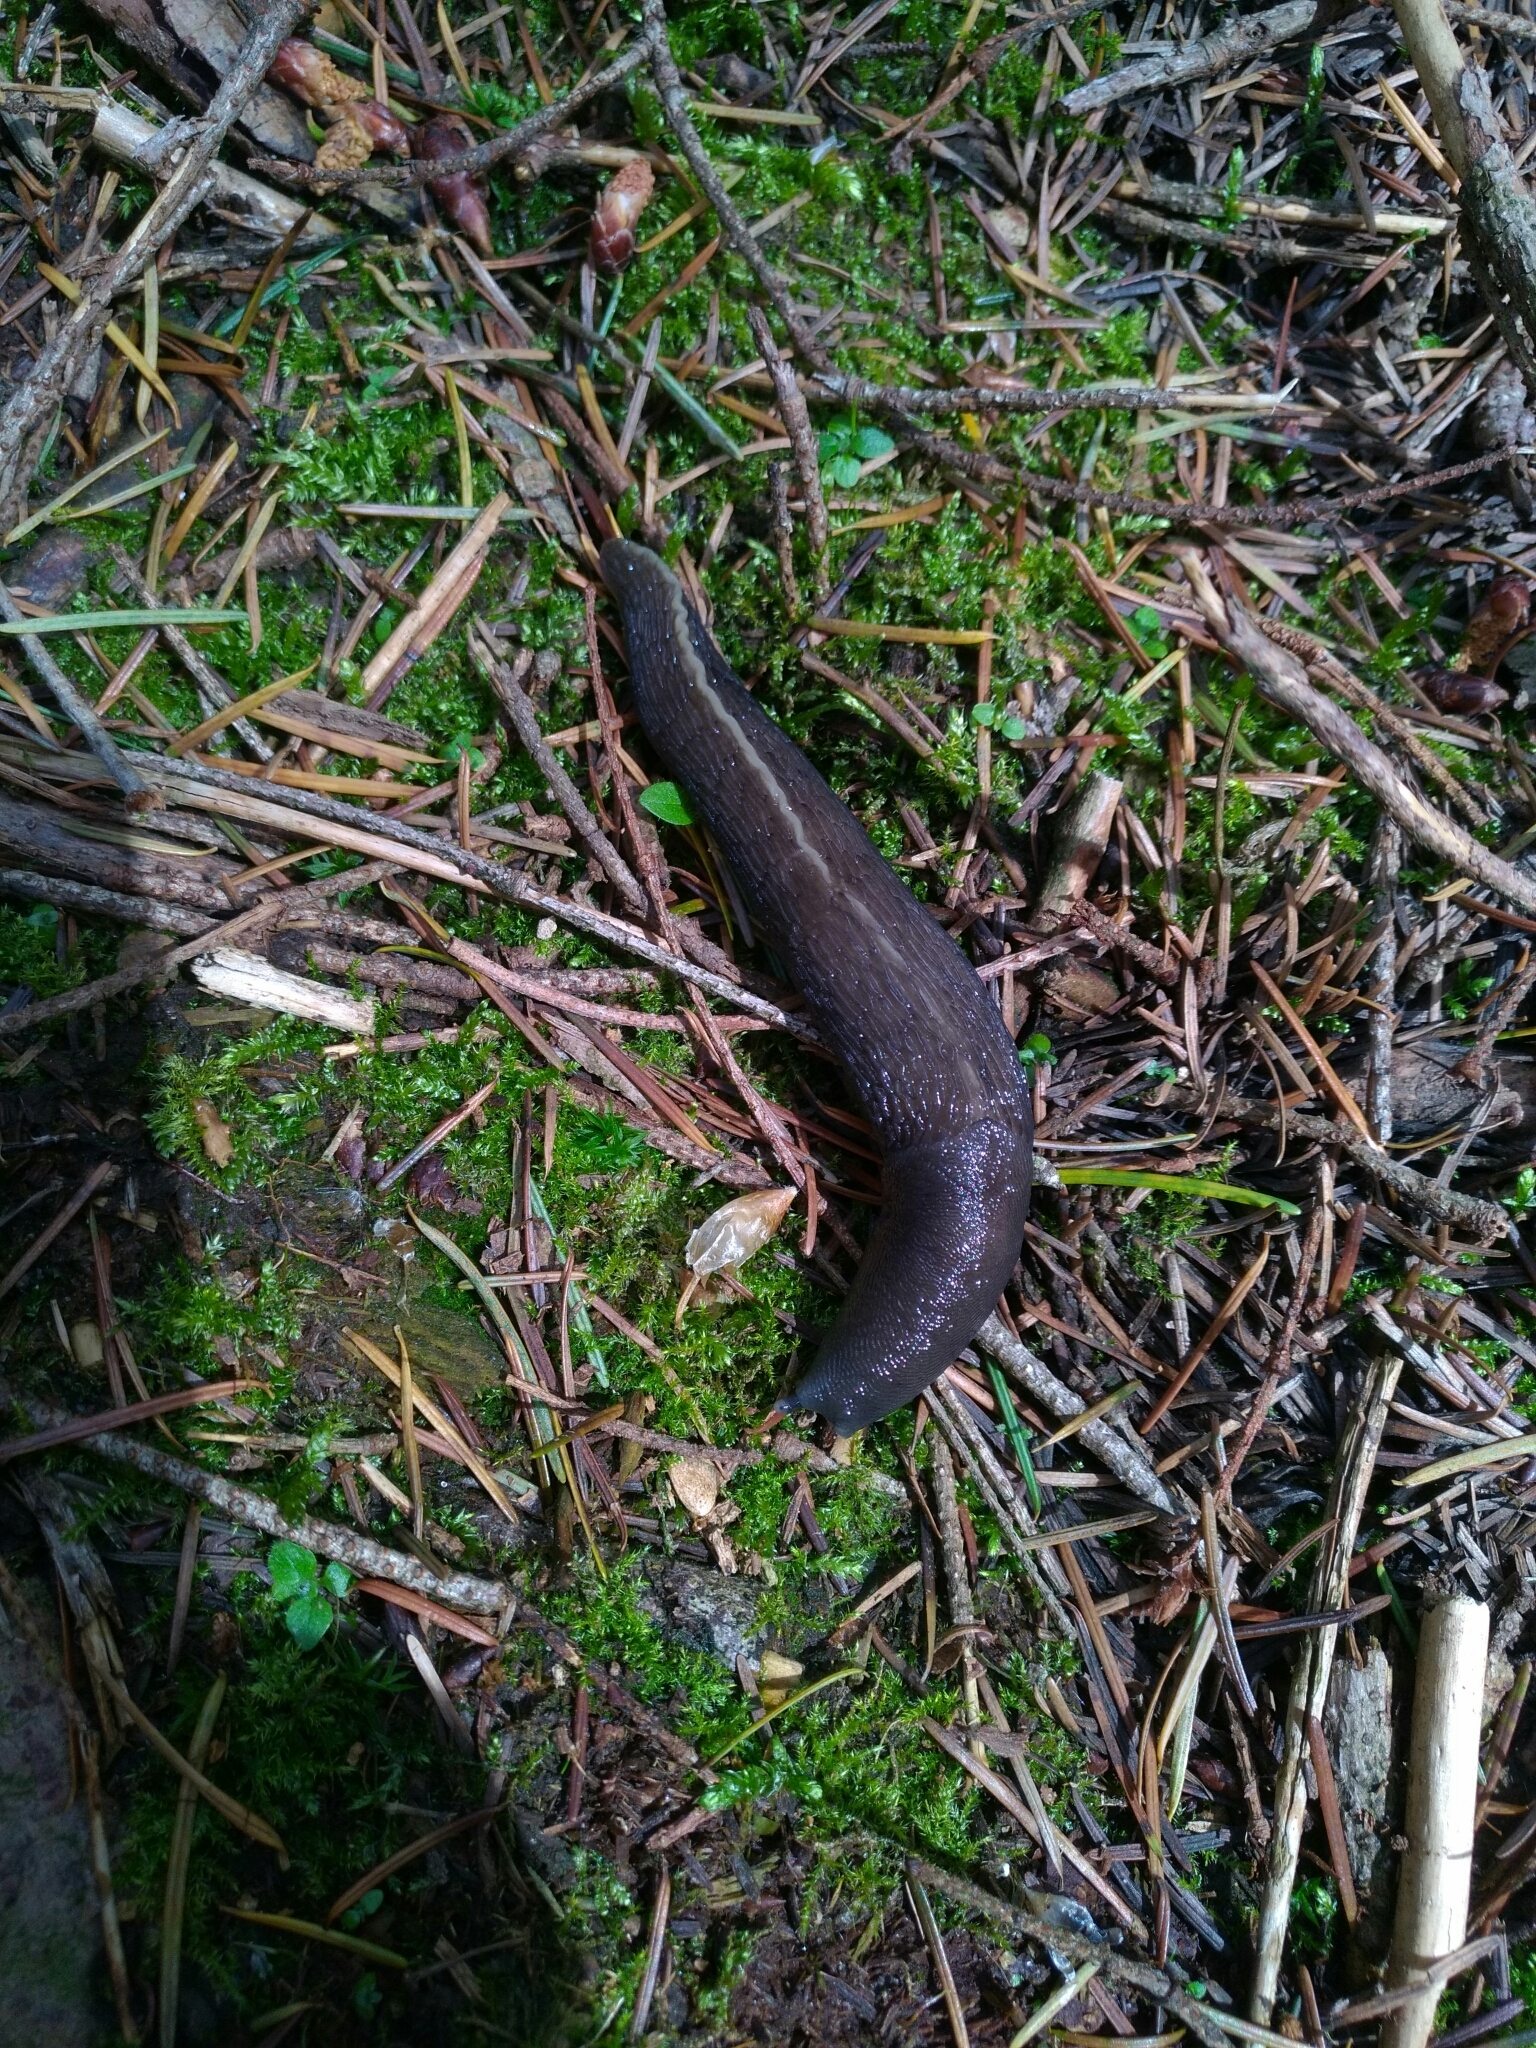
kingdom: Animalia
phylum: Mollusca
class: Gastropoda
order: Stylommatophora
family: Limacidae
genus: Limax
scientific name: Limax cinereoniger
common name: Ash-black slug
